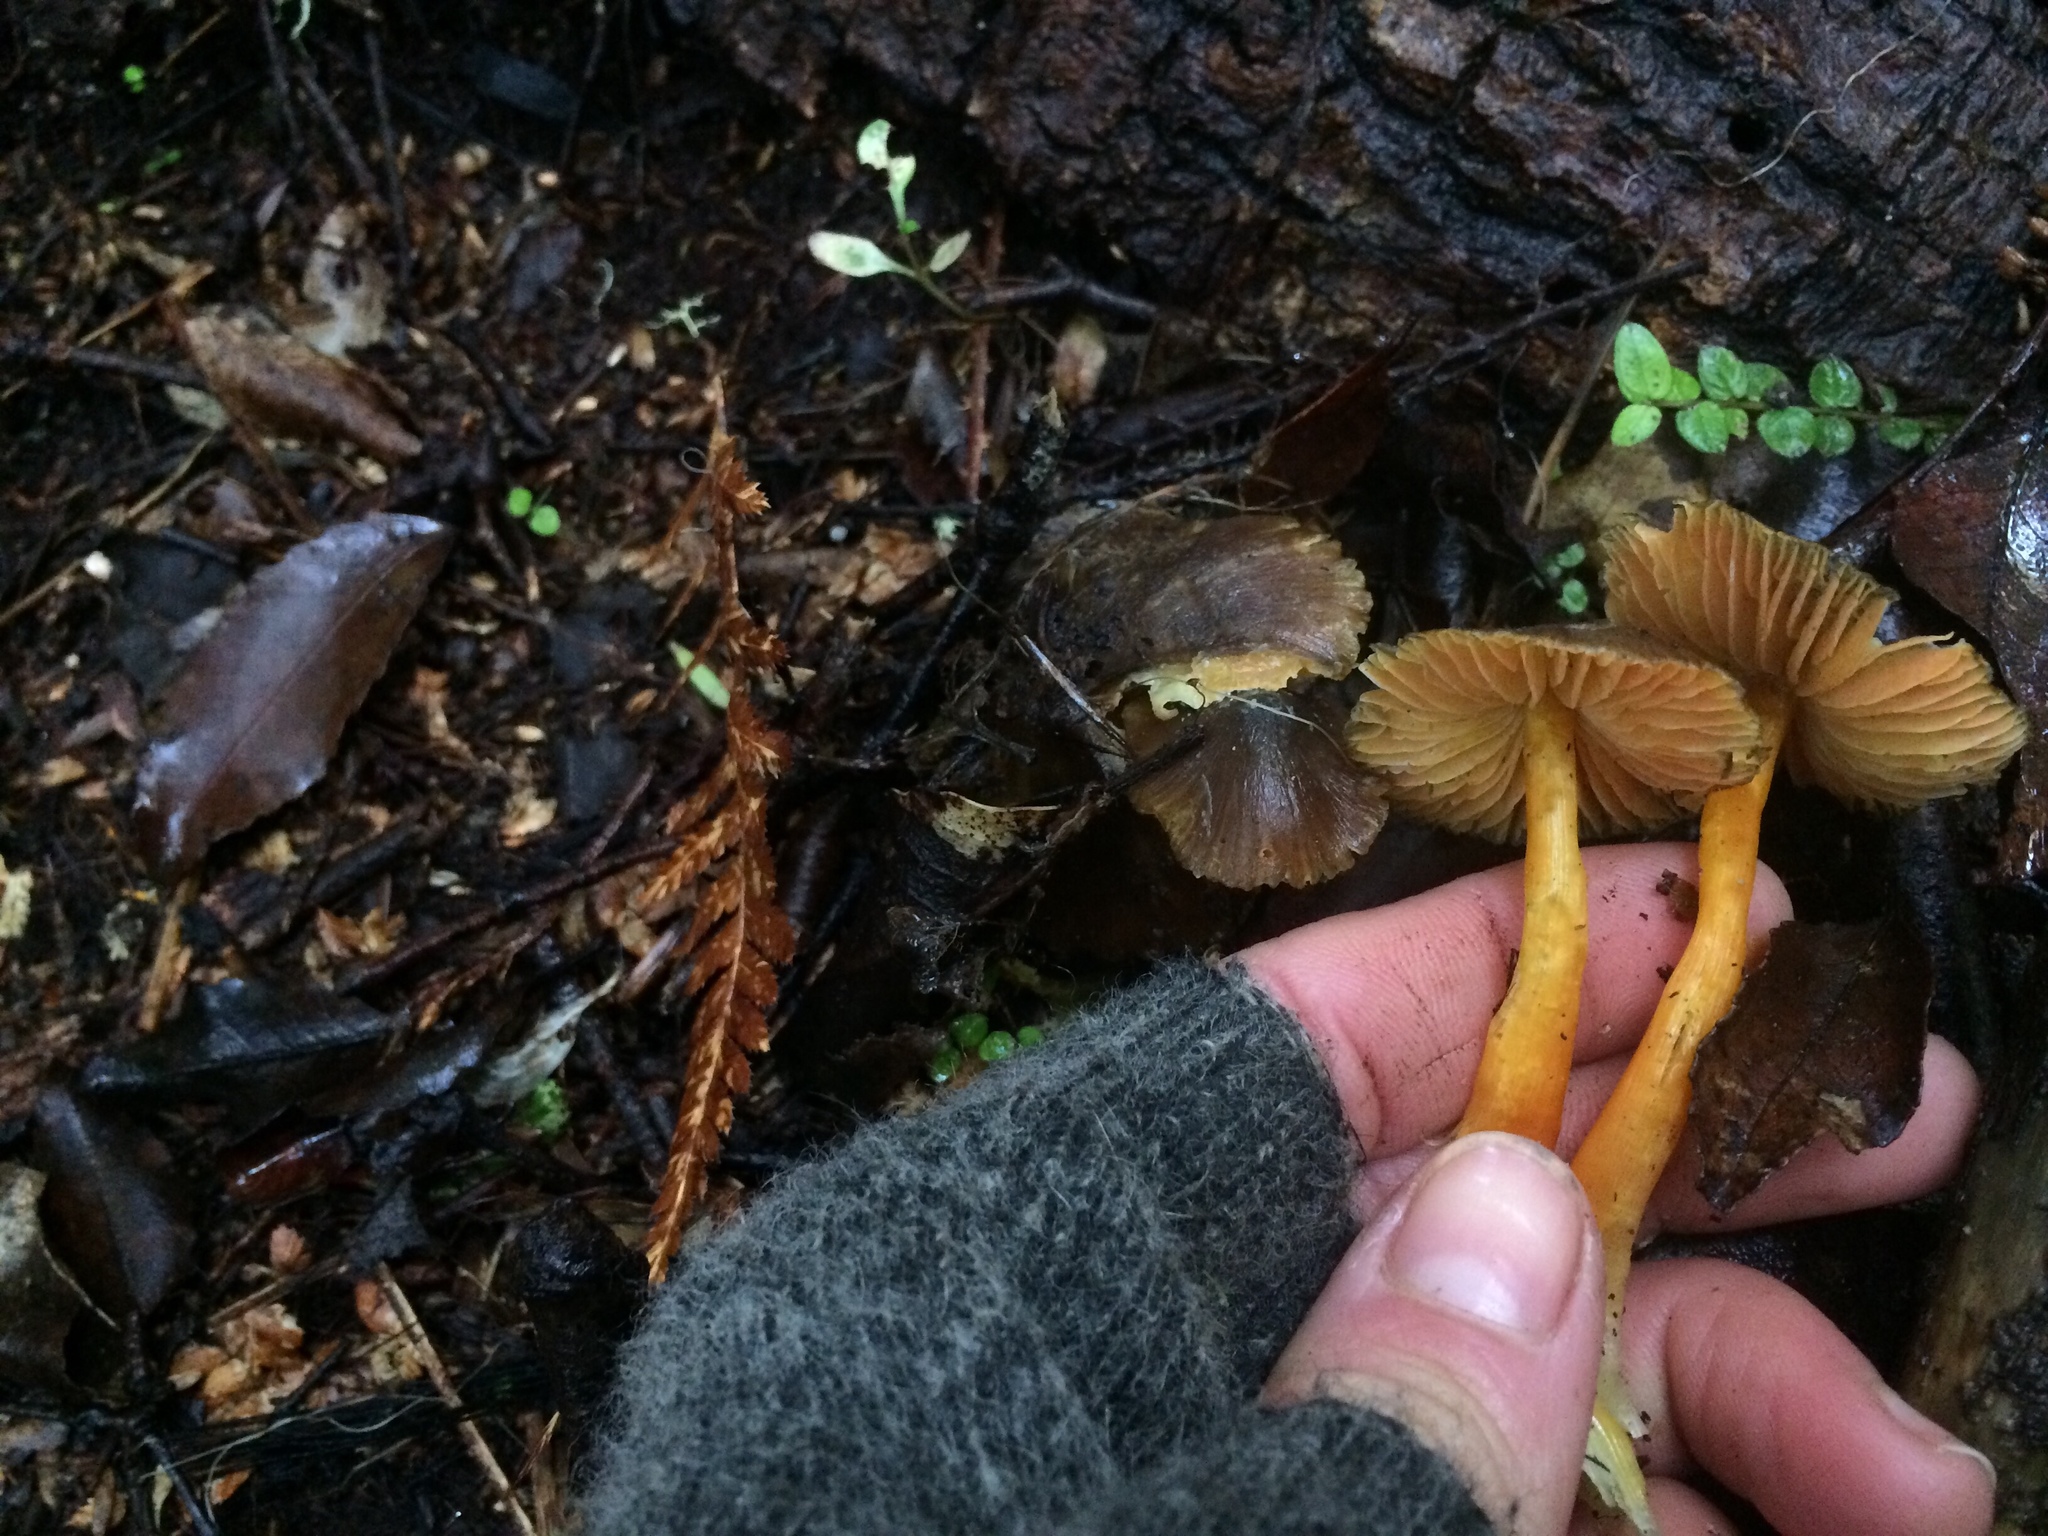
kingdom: Fungi
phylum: Basidiomycota
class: Agaricomycetes
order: Agaricales
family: Hygrophoraceae
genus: Hygrocybe
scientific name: Hygrocybe fuscoaurantiaca
